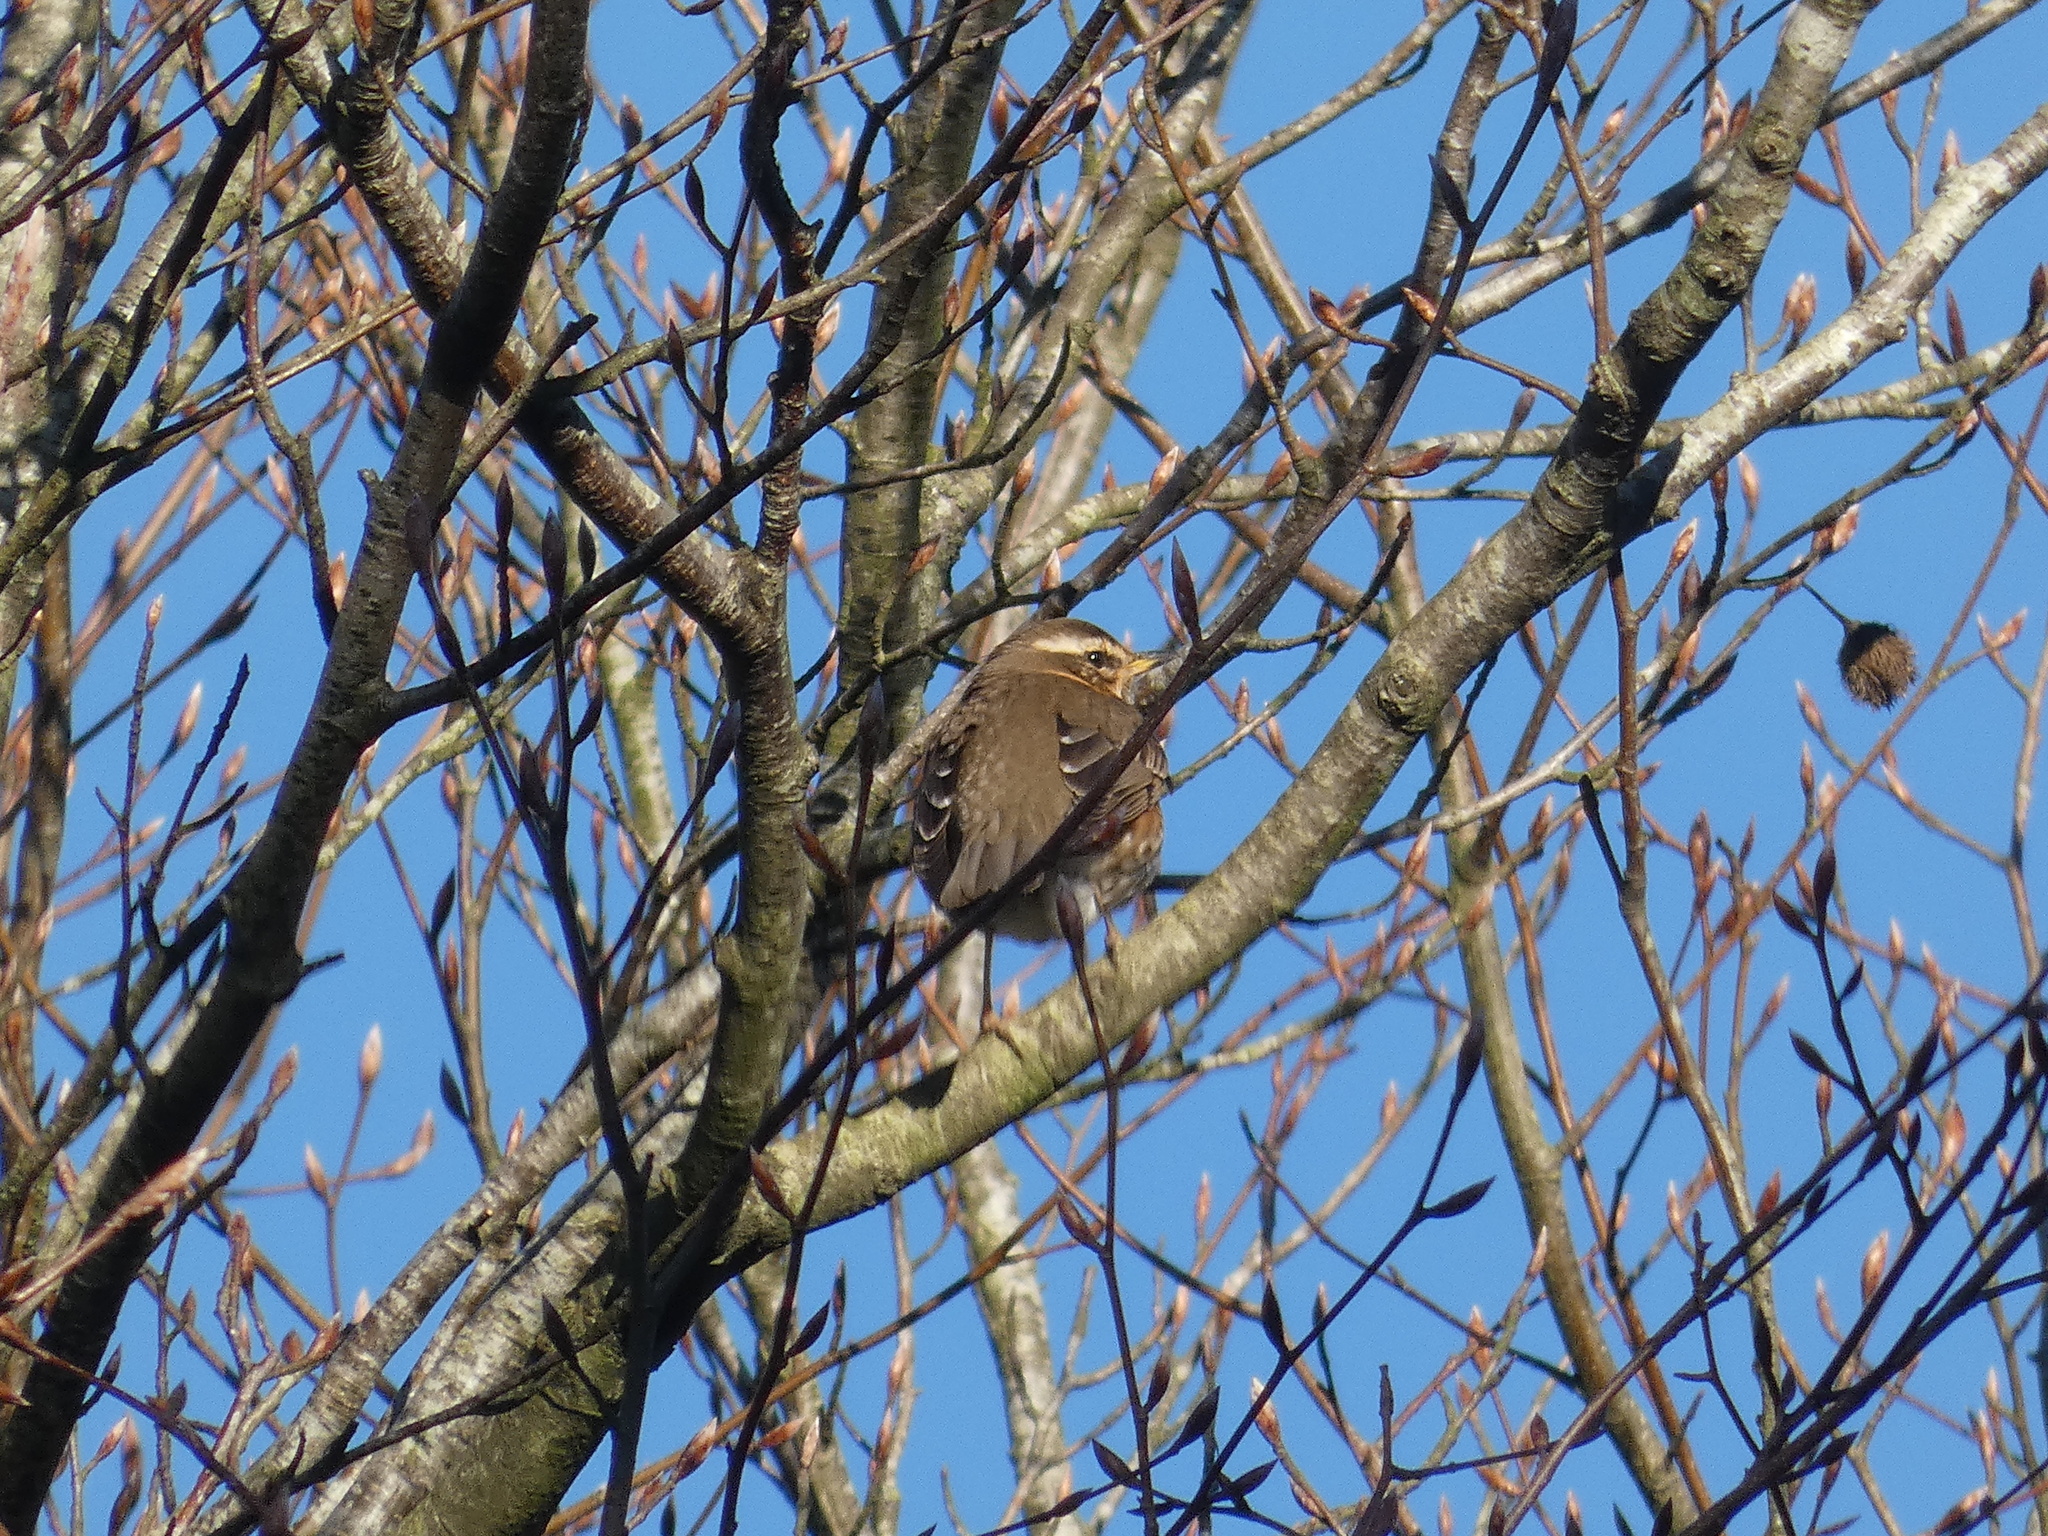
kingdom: Animalia
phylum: Chordata
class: Aves
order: Passeriformes
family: Turdidae
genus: Turdus
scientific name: Turdus iliacus
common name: Redwing
